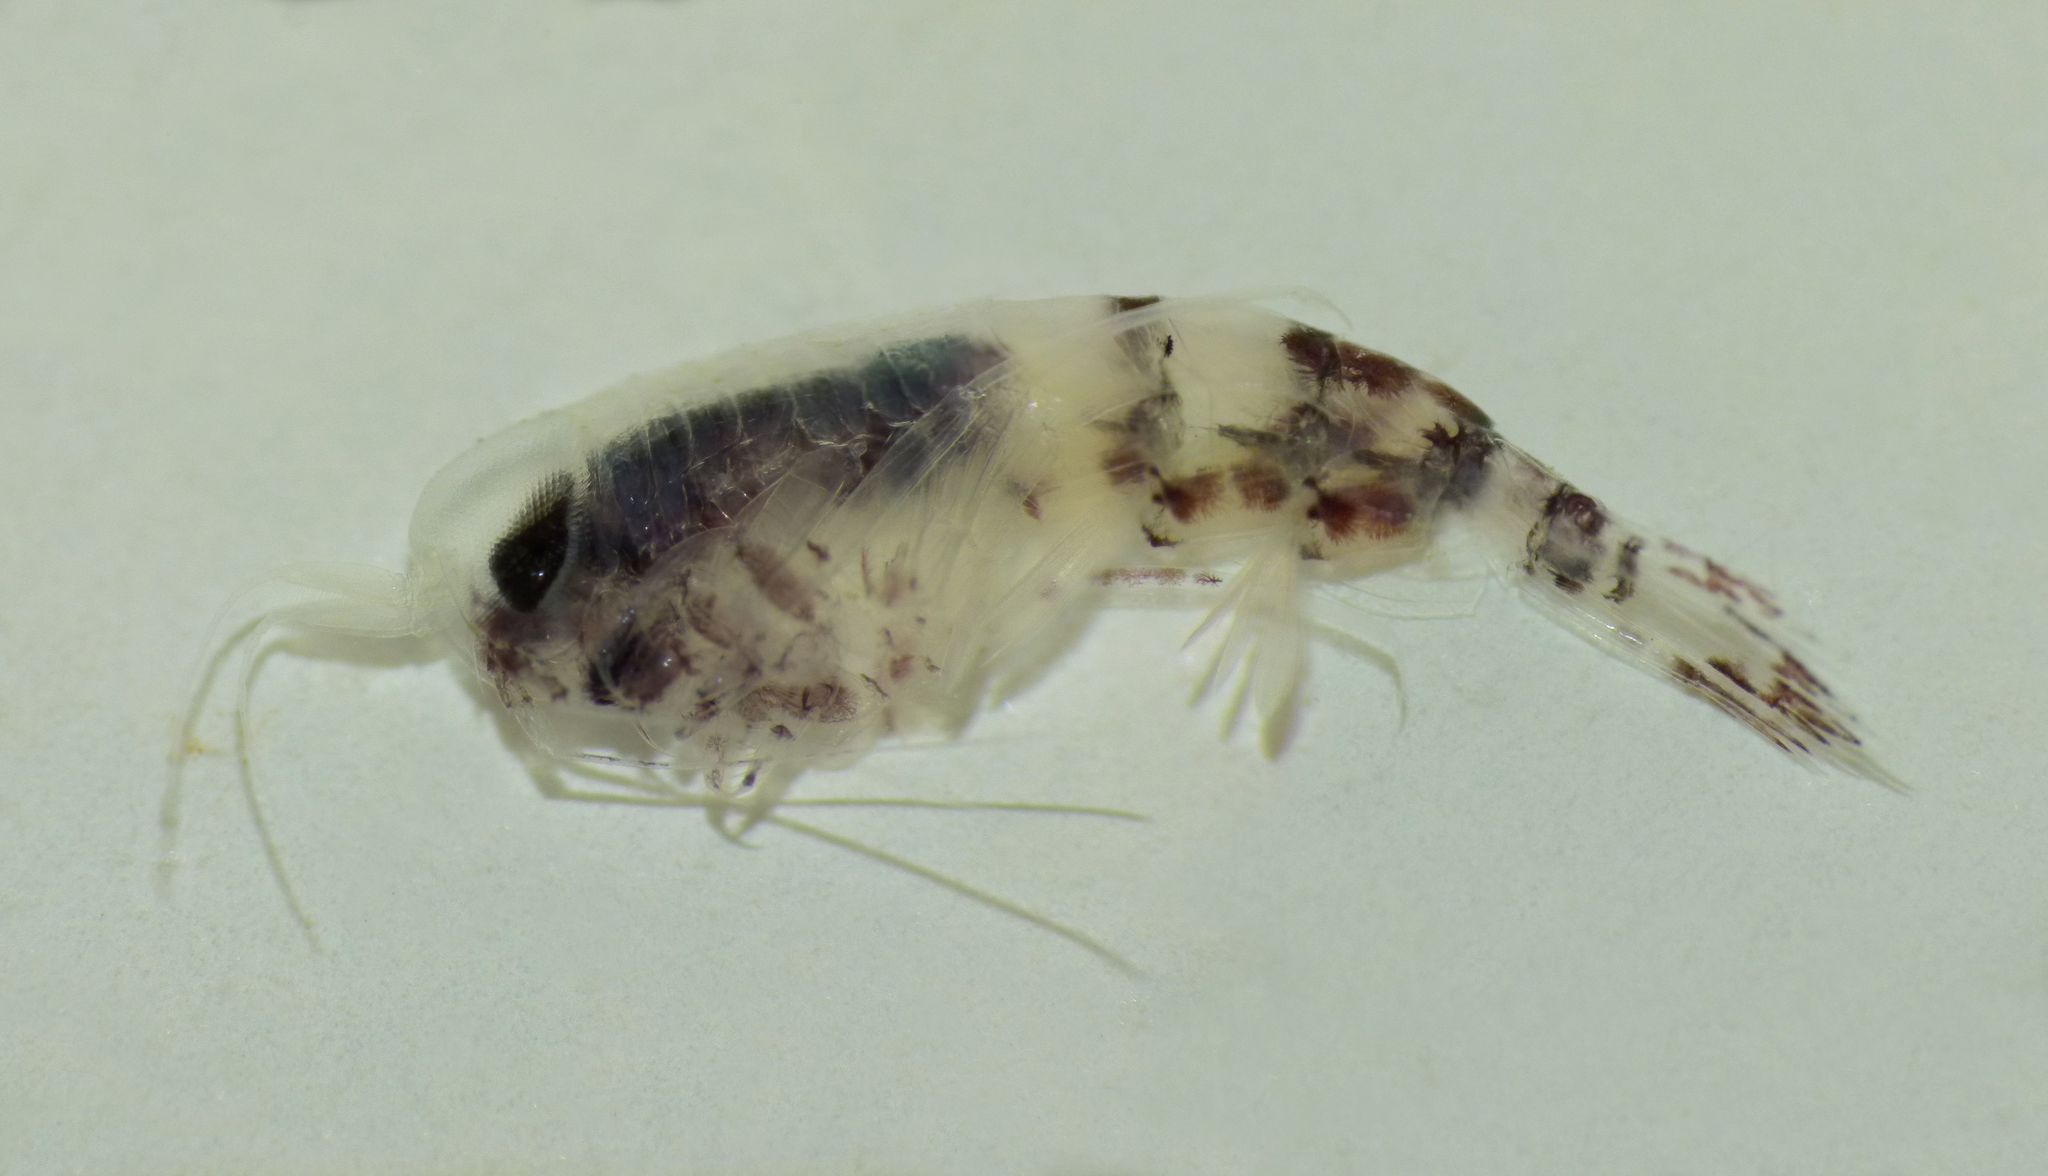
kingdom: Animalia
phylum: Arthropoda
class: Malacostraca
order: Amphipoda
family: Hyperiidae
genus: Themisto
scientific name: Themisto australis
